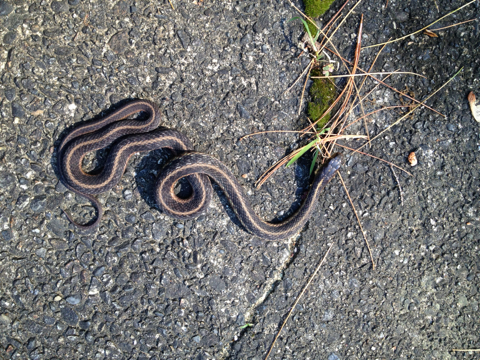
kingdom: Animalia
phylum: Chordata
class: Squamata
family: Colubridae
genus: Thamnophis
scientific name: Thamnophis sirtalis
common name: Common garter snake
